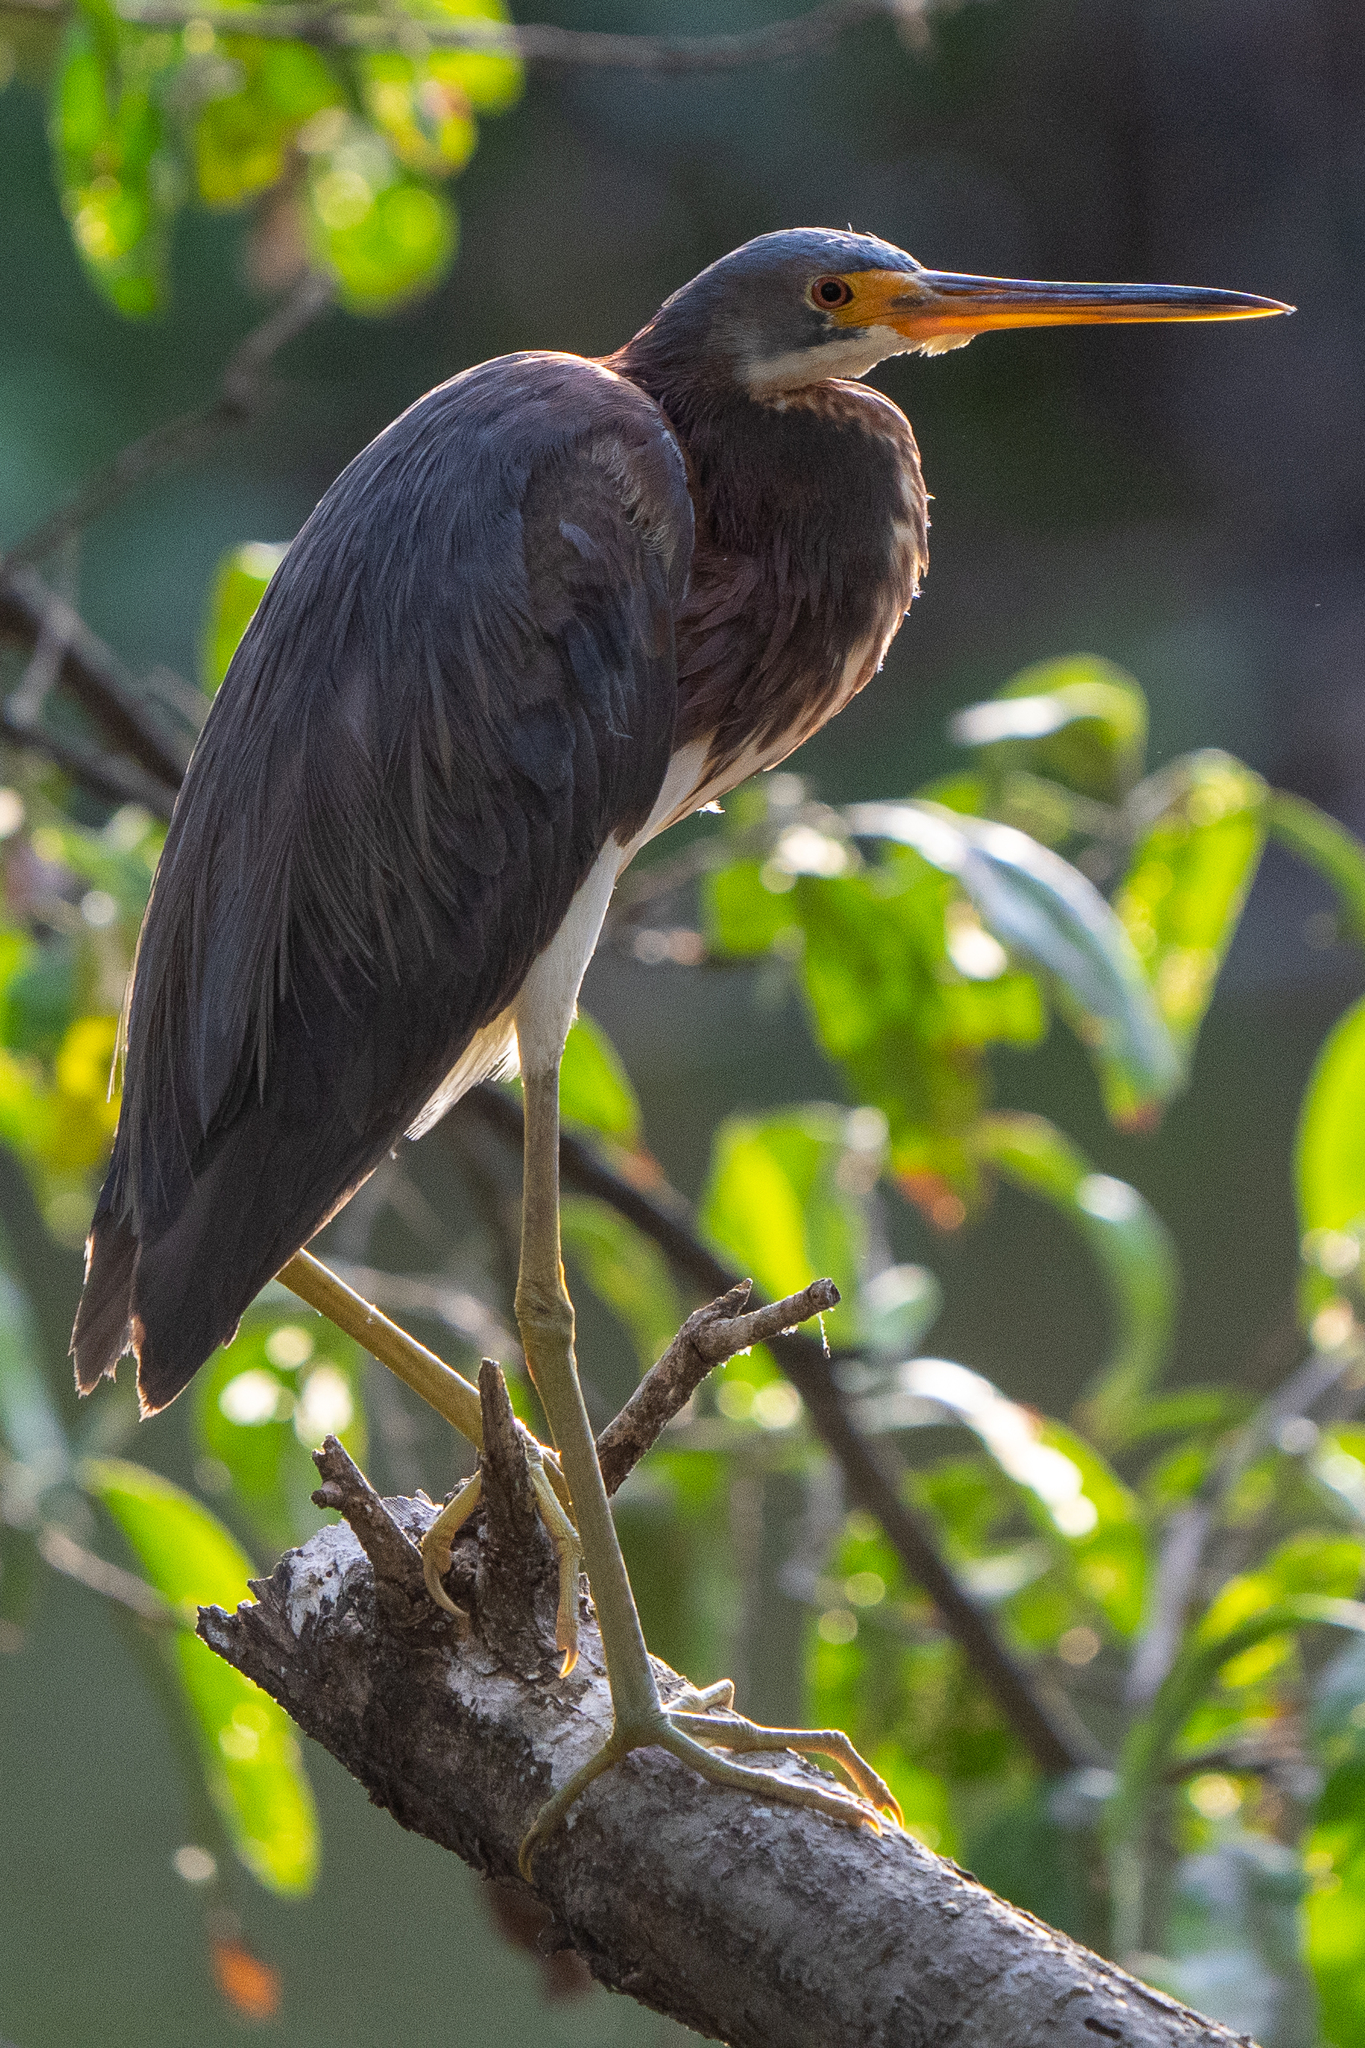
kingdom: Animalia
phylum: Chordata
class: Aves
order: Pelecaniformes
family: Ardeidae
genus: Egretta
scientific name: Egretta tricolor
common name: Tricolored heron
